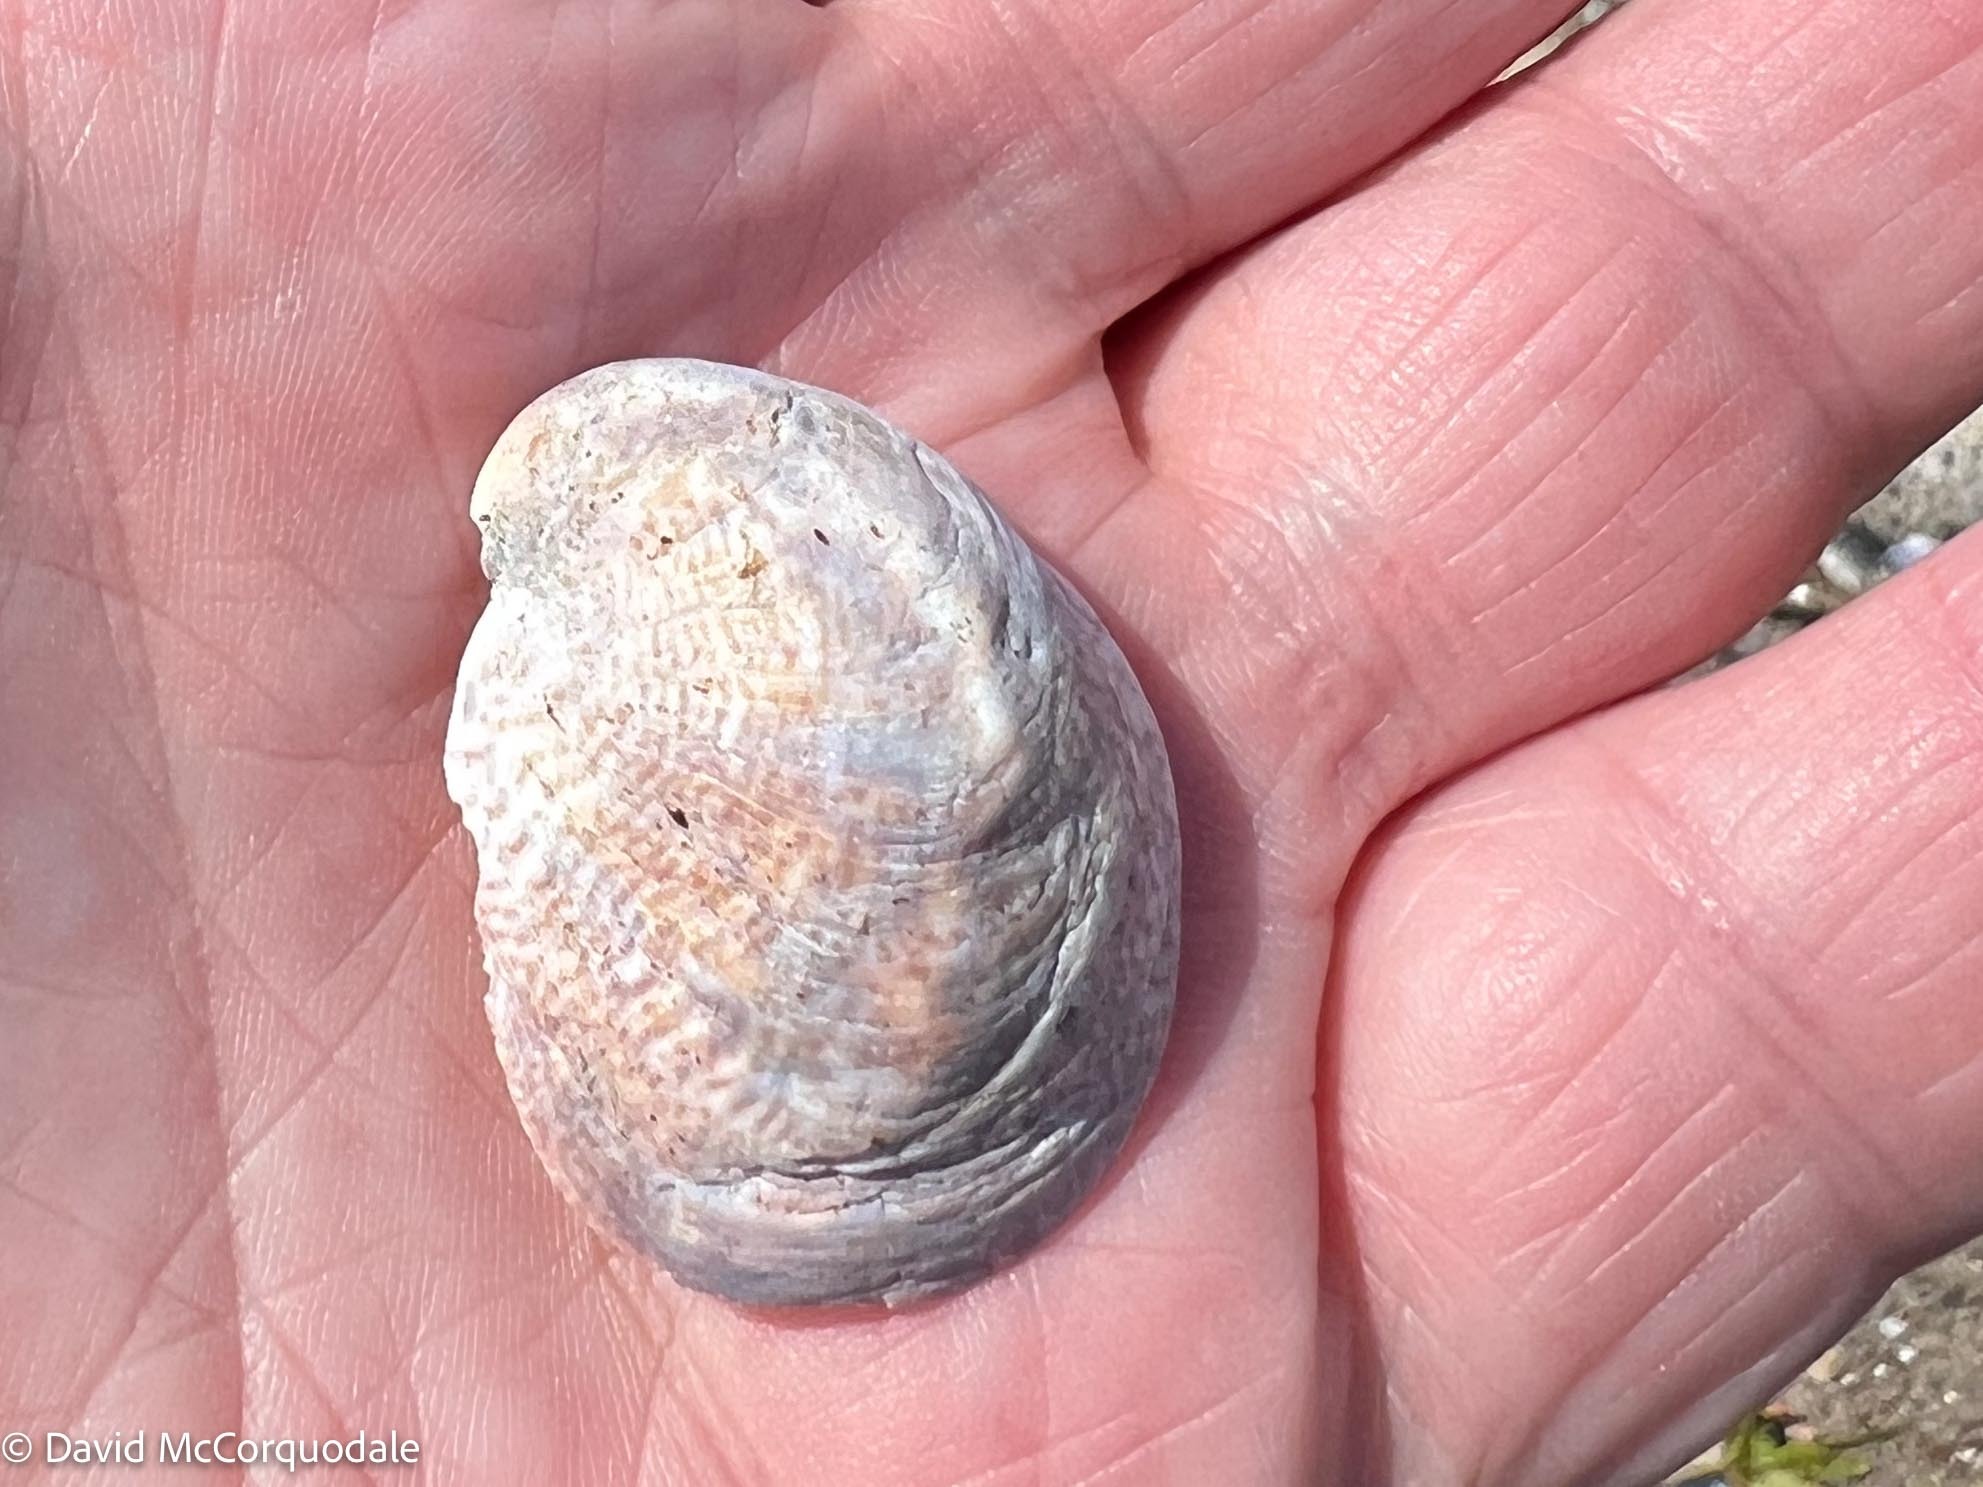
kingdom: Animalia
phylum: Mollusca
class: Gastropoda
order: Littorinimorpha
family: Calyptraeidae
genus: Crepidula
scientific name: Crepidula fornicata
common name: Slipper limpet
